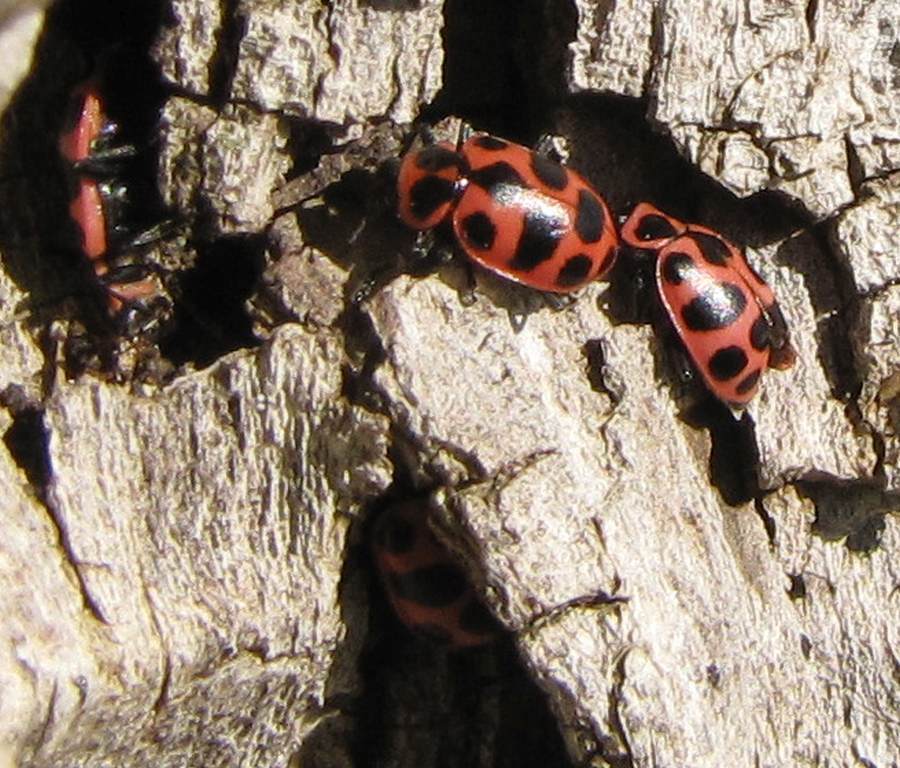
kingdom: Animalia
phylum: Arthropoda
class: Insecta
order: Coleoptera
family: Coccinellidae
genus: Coleomegilla
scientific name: Coleomegilla maculata
